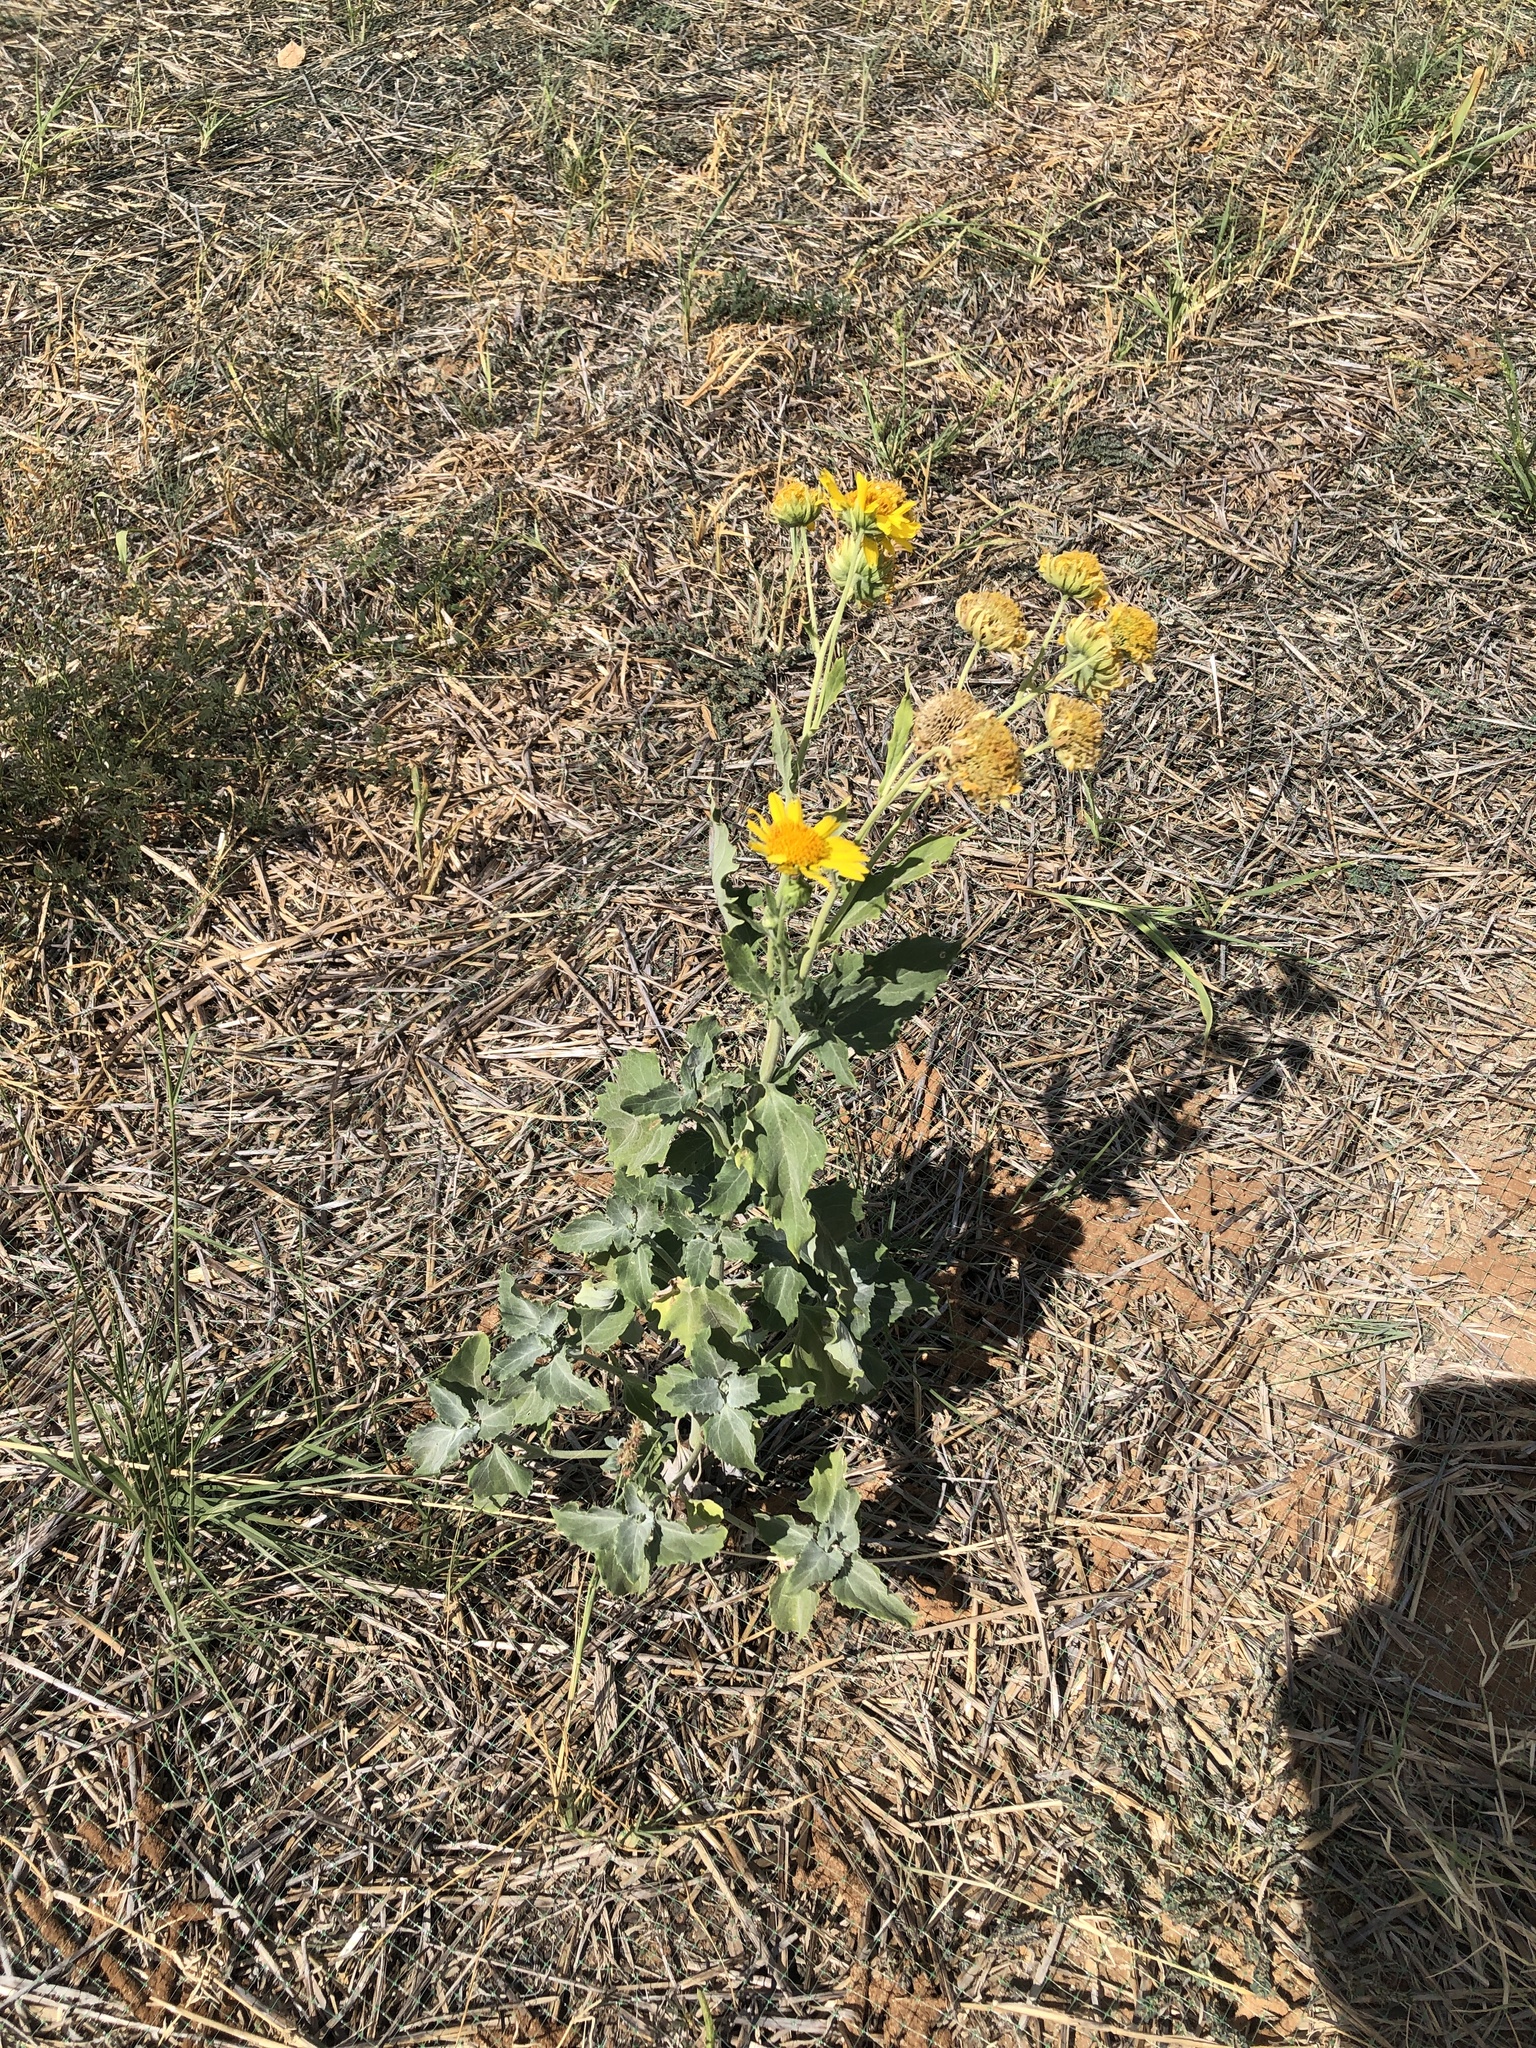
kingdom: Plantae
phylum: Tracheophyta
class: Magnoliopsida
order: Asterales
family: Asteraceae
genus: Verbesina
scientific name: Verbesina encelioides
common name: Golden crownbeard
